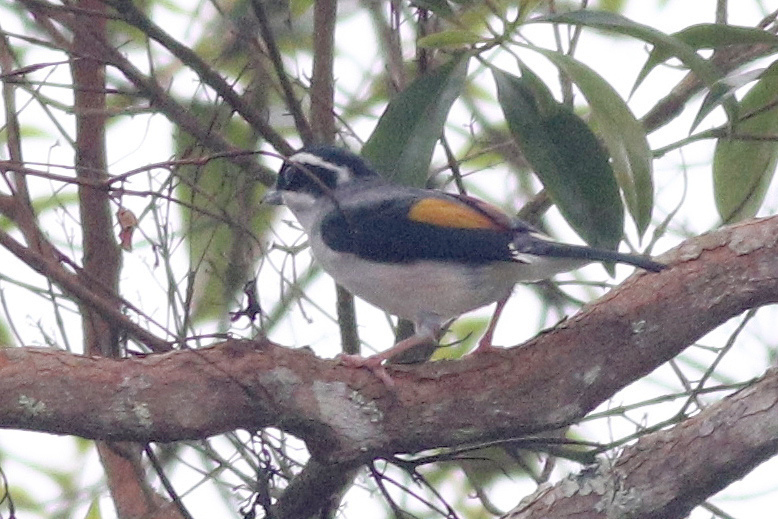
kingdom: Animalia
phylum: Chordata
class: Aves
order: Passeriformes
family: Vireonidae
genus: Pteruthius
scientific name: Pteruthius aeralatus
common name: Blyth's shrike-babbler
